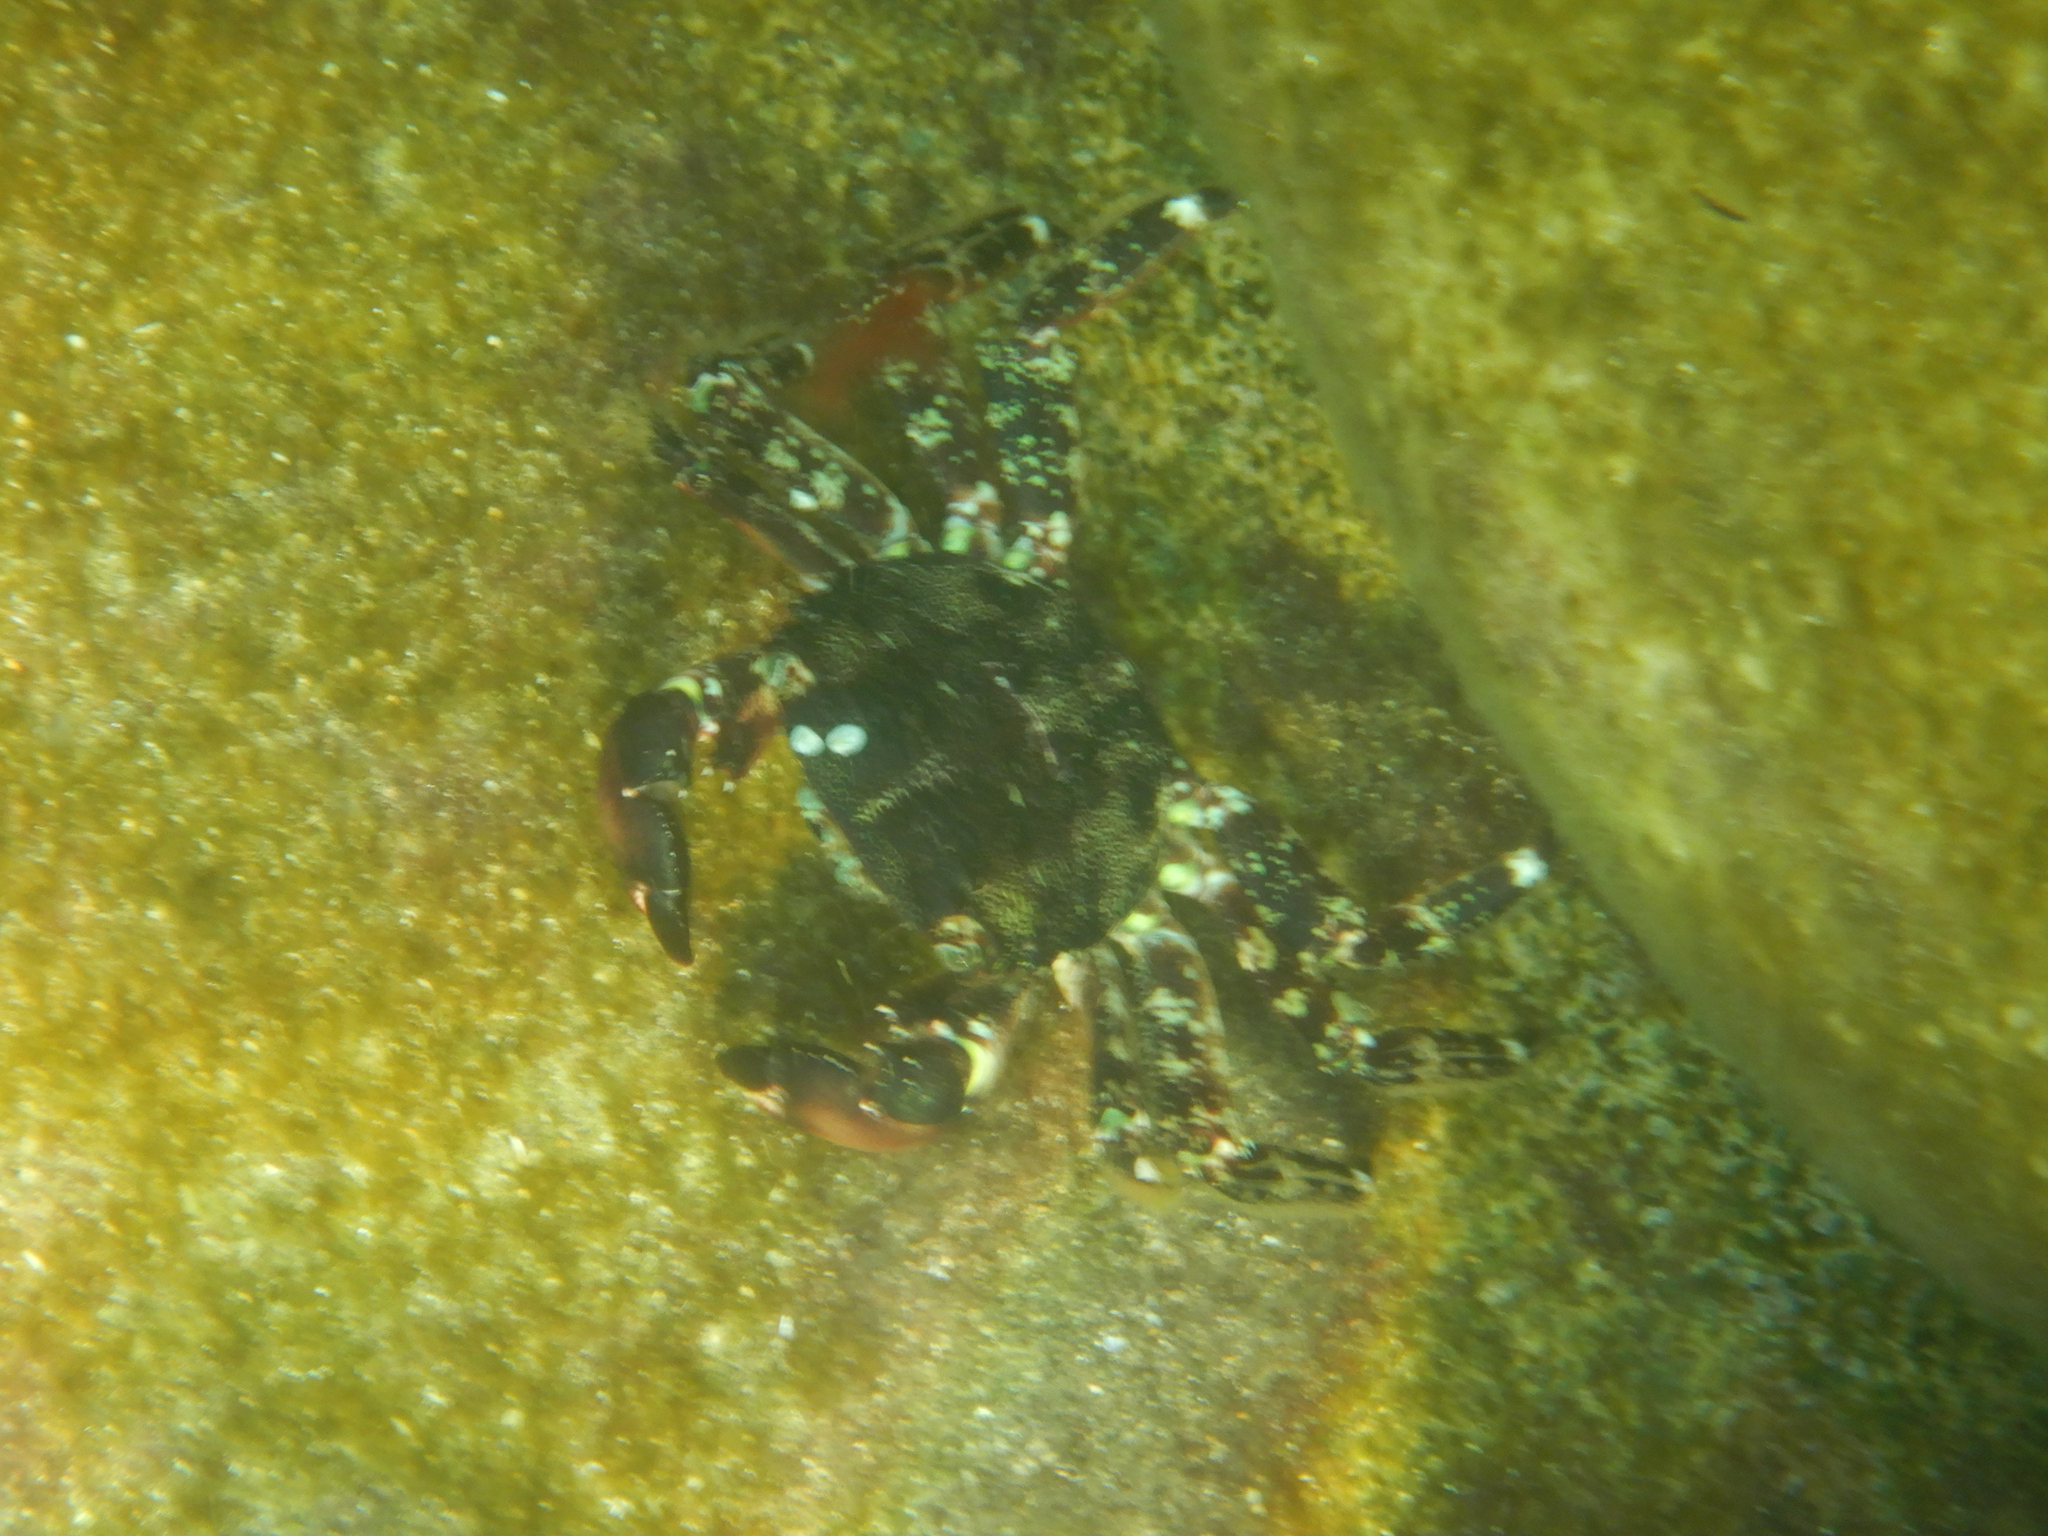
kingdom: Animalia
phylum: Arthropoda
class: Malacostraca
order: Decapoda
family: Grapsidae
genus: Pachygrapsus
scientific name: Pachygrapsus marmoratus
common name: Marbled rock crab
